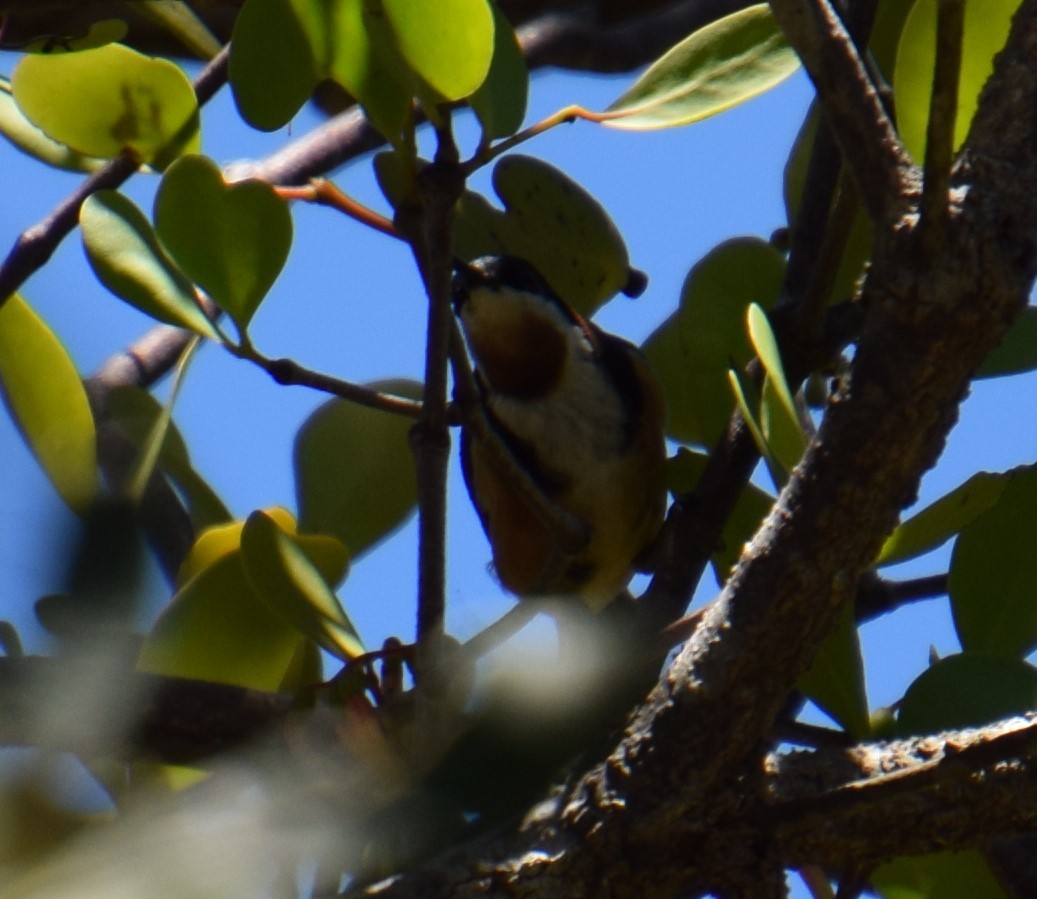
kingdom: Animalia
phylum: Chordata
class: Aves
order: Passeriformes
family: Meliphagidae
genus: Acanthorhynchus
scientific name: Acanthorhynchus tenuirostris
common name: Eastern spinebill
